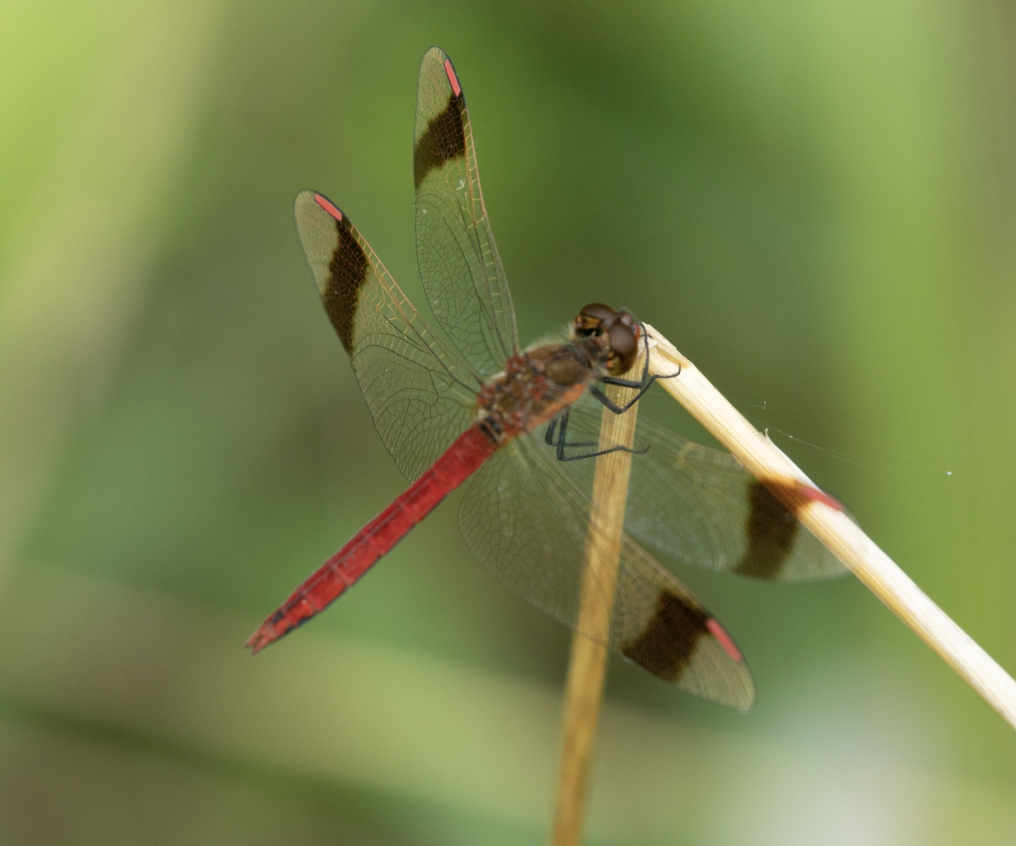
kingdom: Animalia
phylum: Arthropoda
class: Insecta
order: Odonata
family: Libellulidae
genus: Sympetrum
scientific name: Sympetrum pedemontanum
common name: Banded darter
